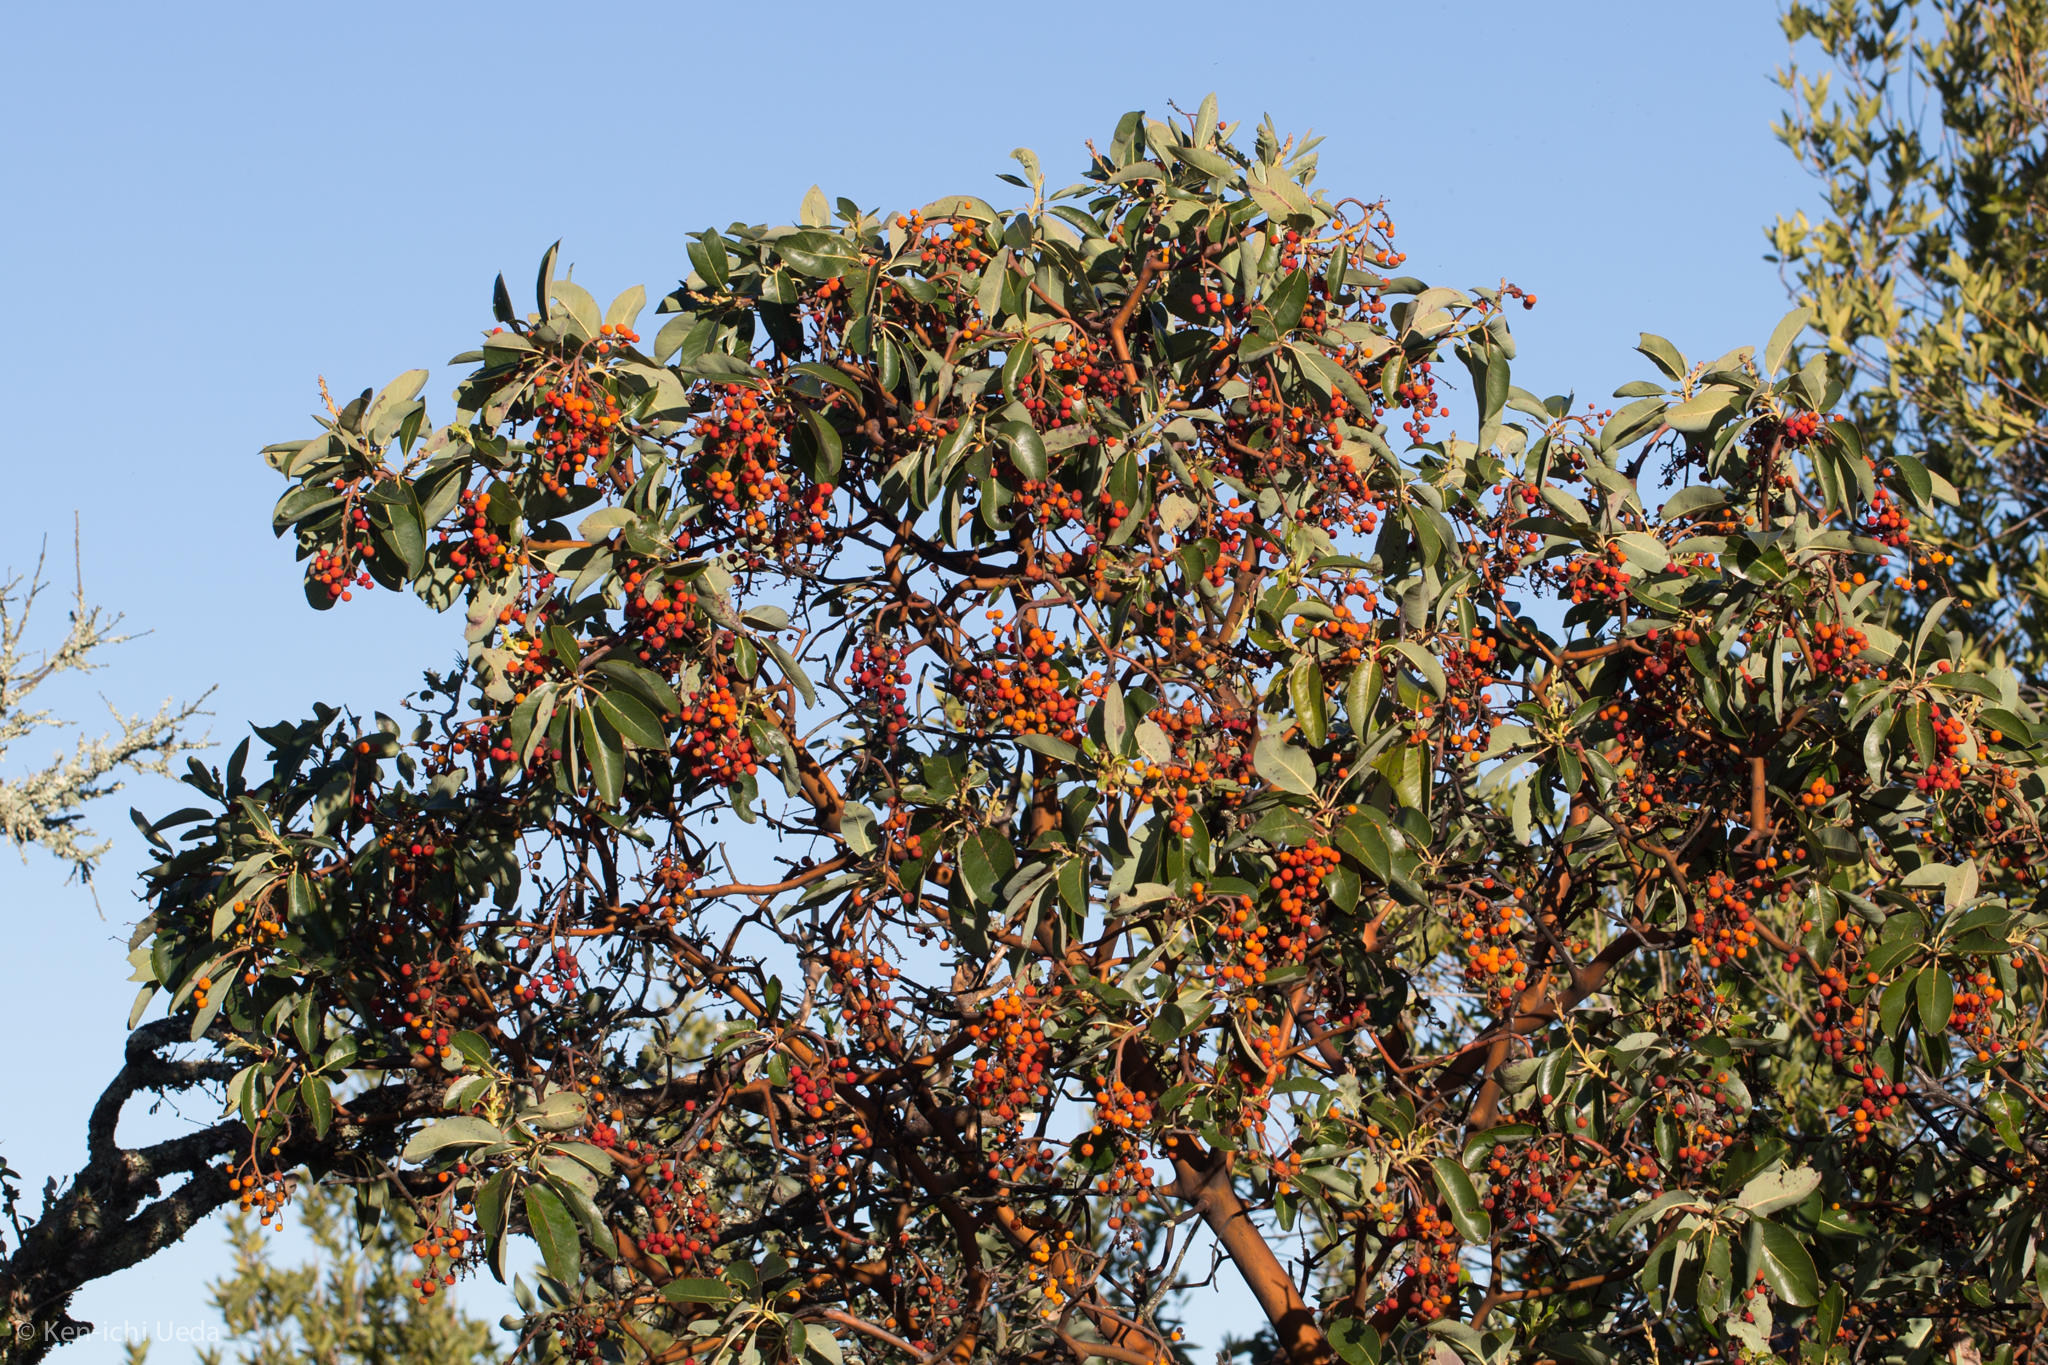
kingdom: Plantae
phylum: Tracheophyta
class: Magnoliopsida
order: Ericales
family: Ericaceae
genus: Arbutus
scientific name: Arbutus menziesii
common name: Pacific madrone
